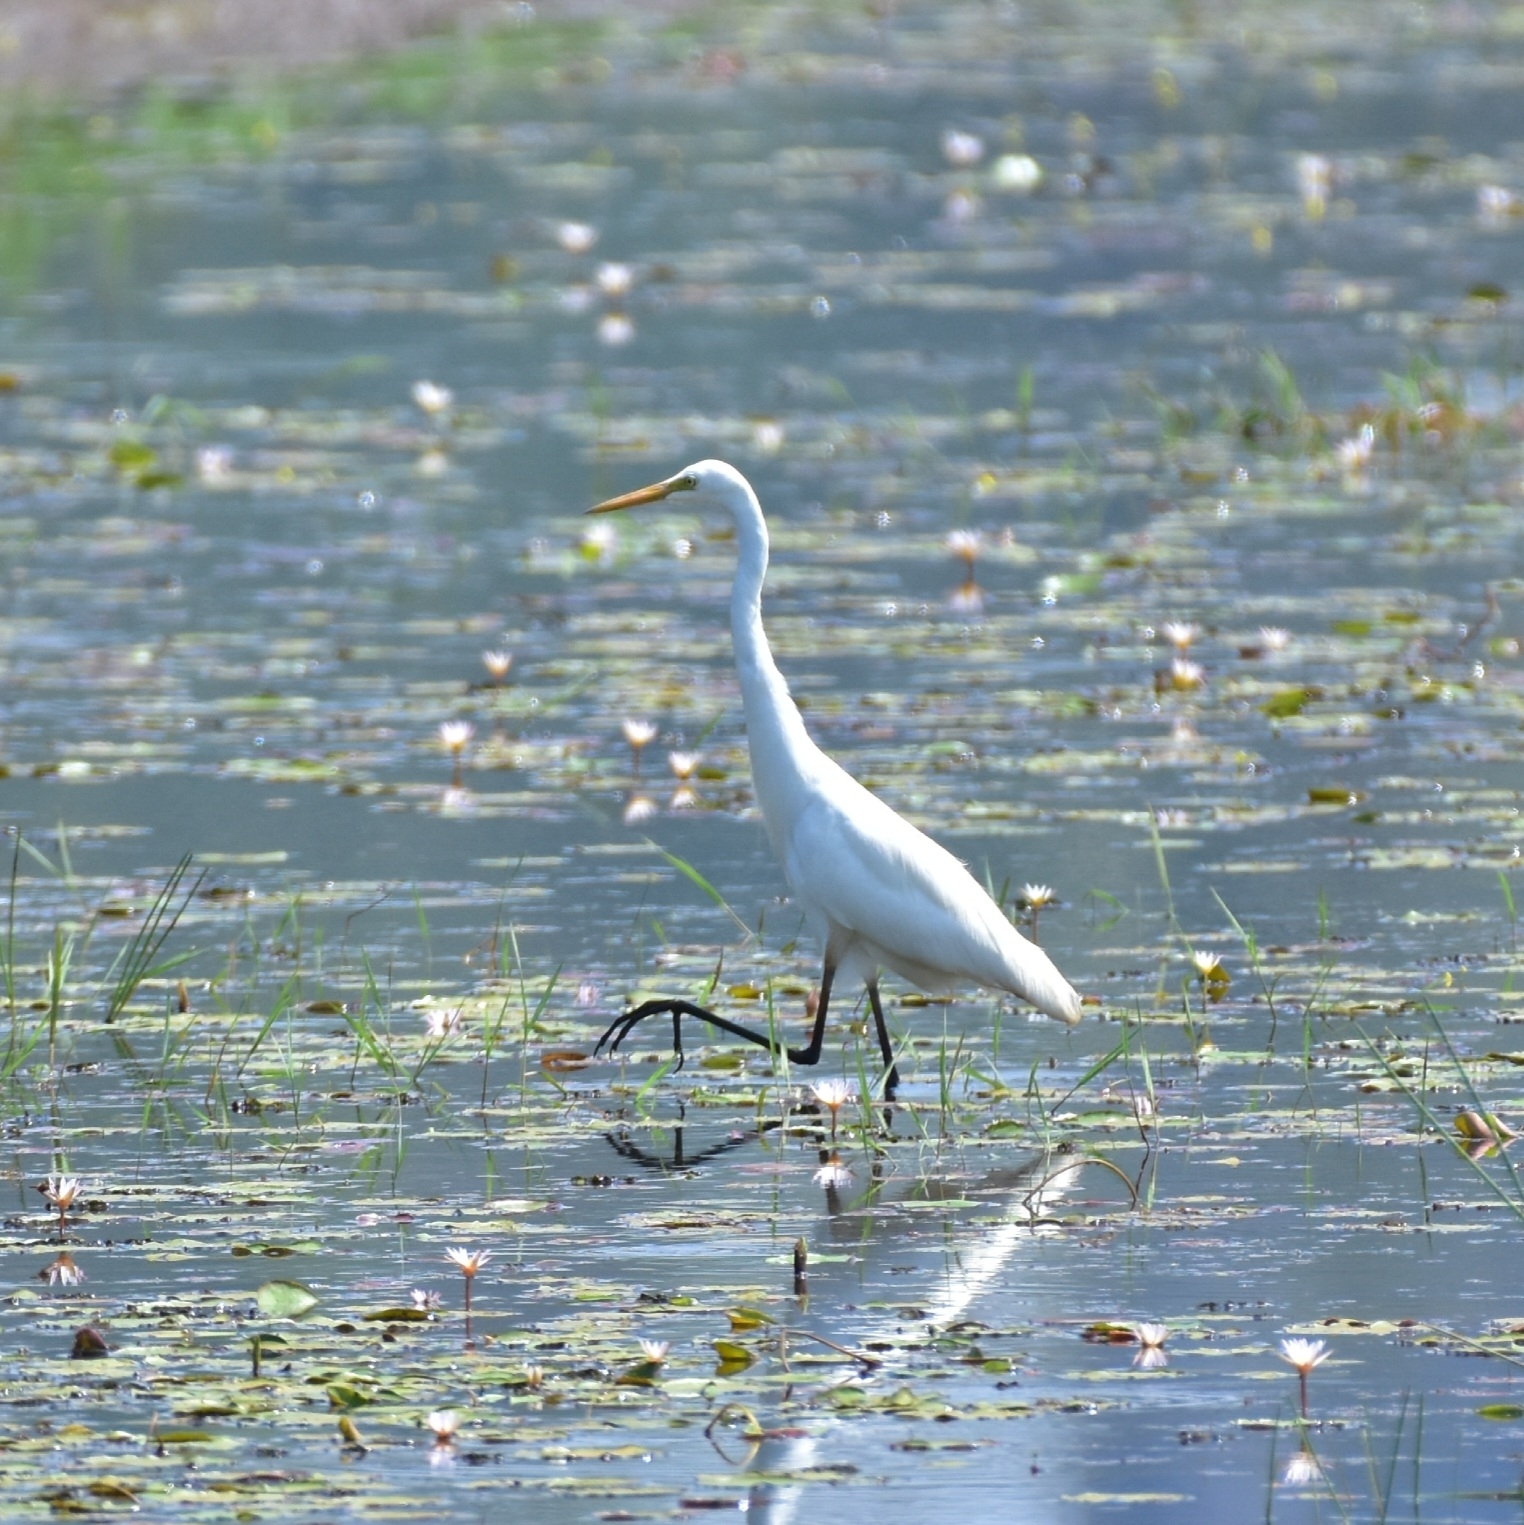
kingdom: Animalia
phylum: Chordata
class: Aves
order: Pelecaniformes
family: Ardeidae
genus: Egretta
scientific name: Egretta intermedia
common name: Intermediate egret
